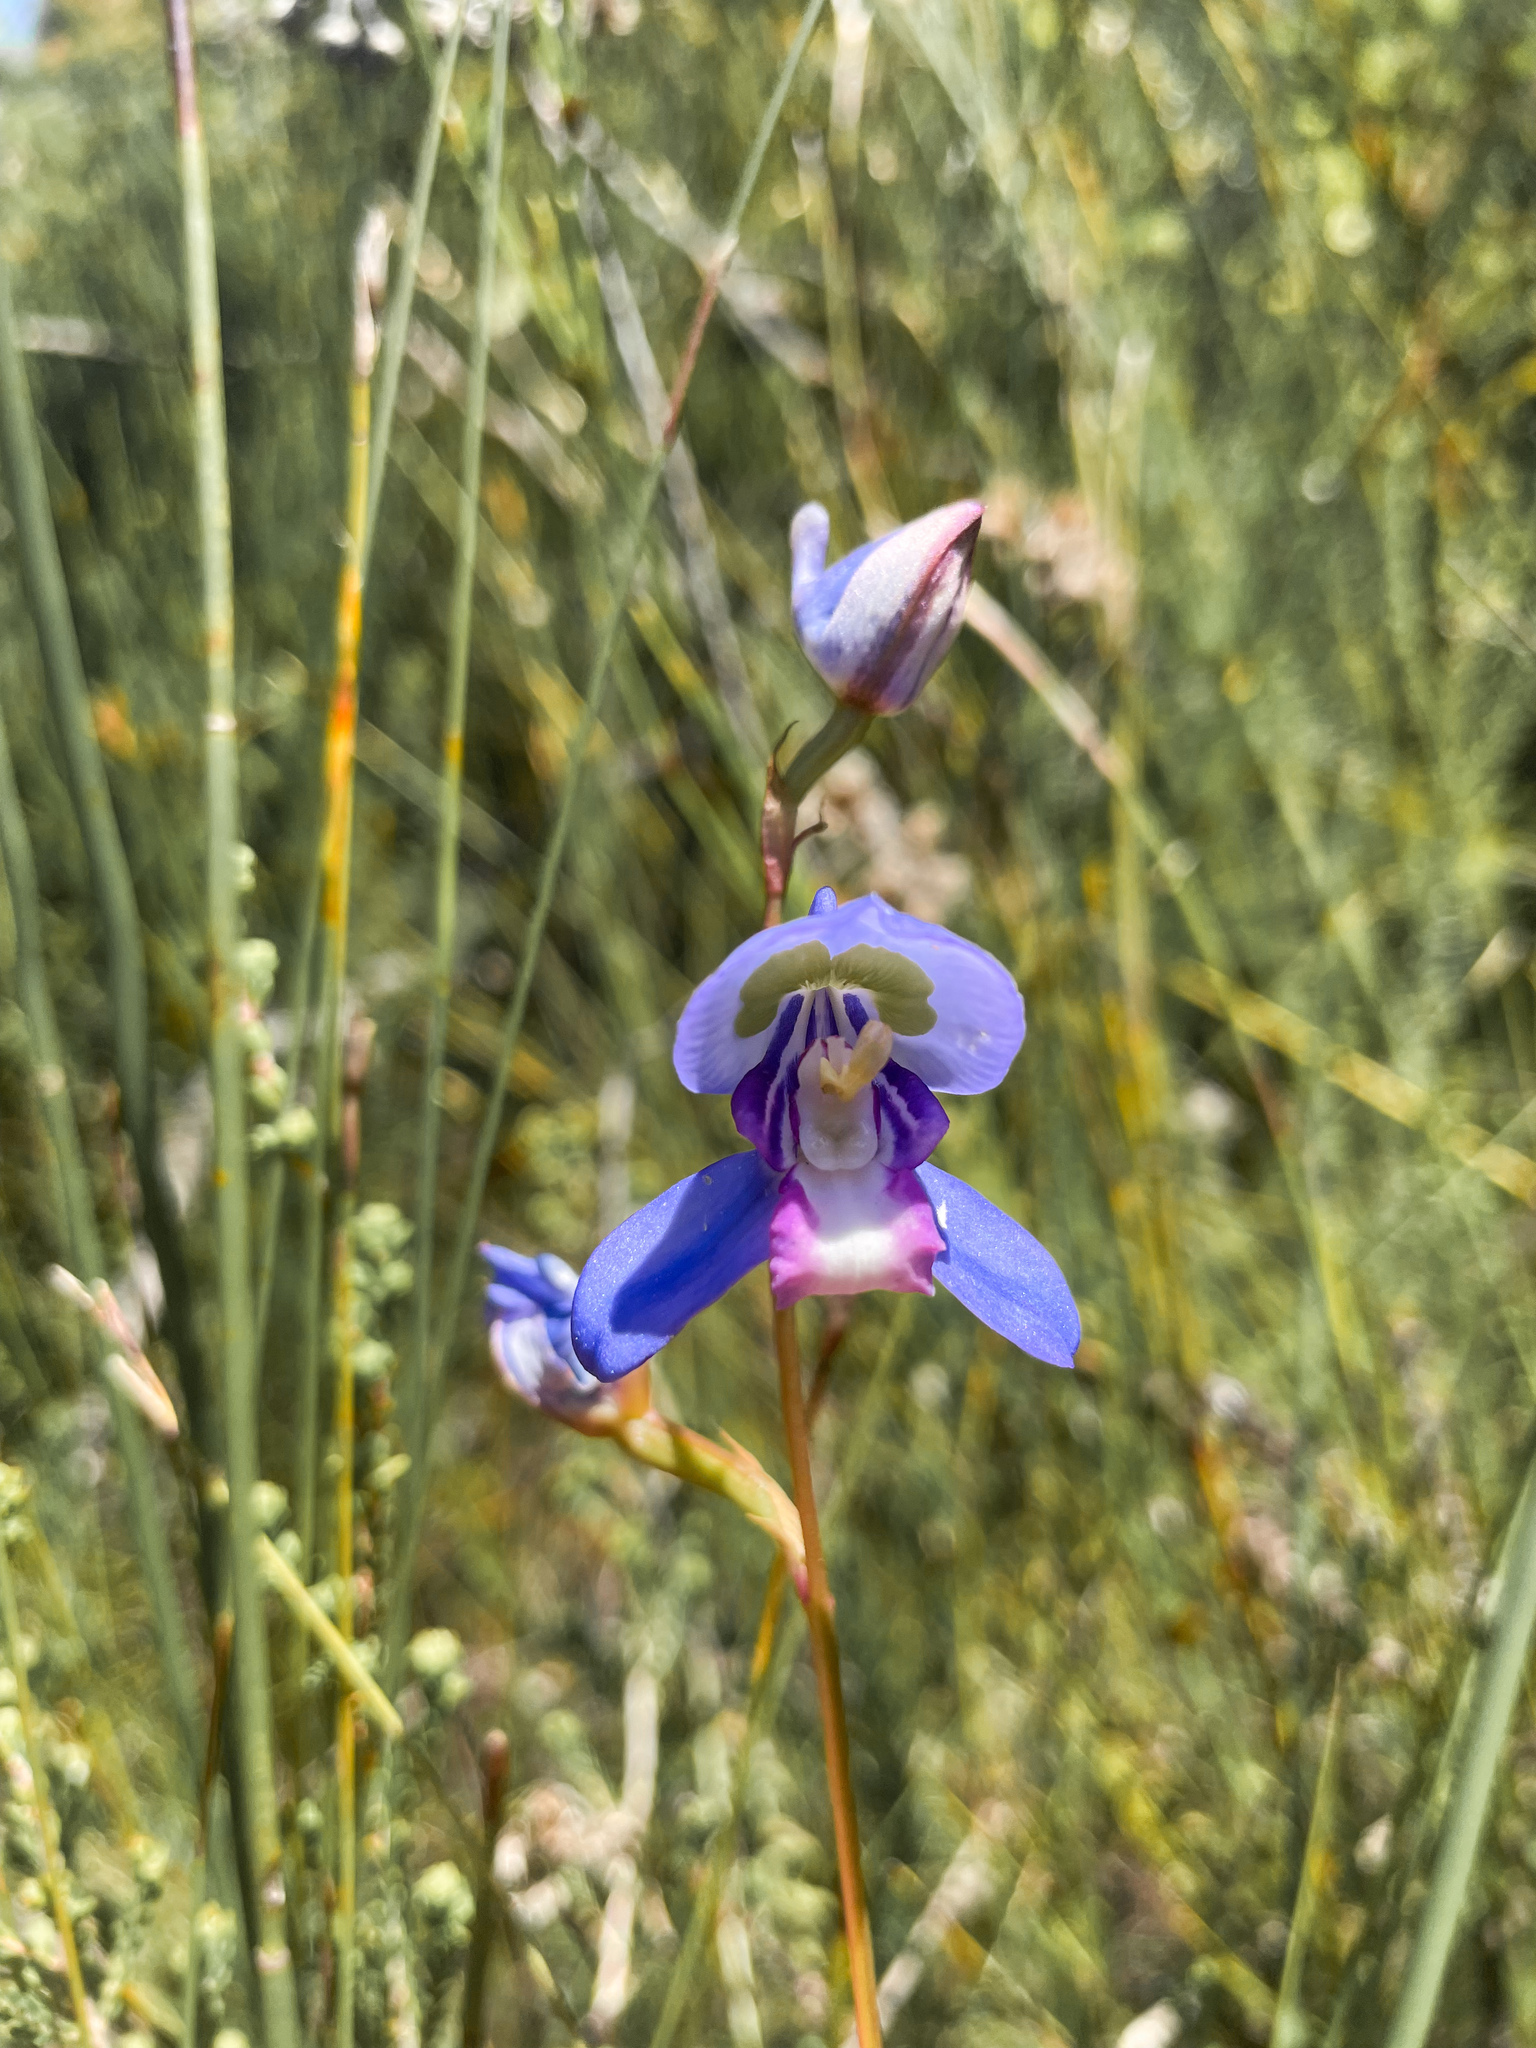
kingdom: Plantae
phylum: Tracheophyta
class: Liliopsida
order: Asparagales
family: Orchidaceae
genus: Disa
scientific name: Disa graminifolia
